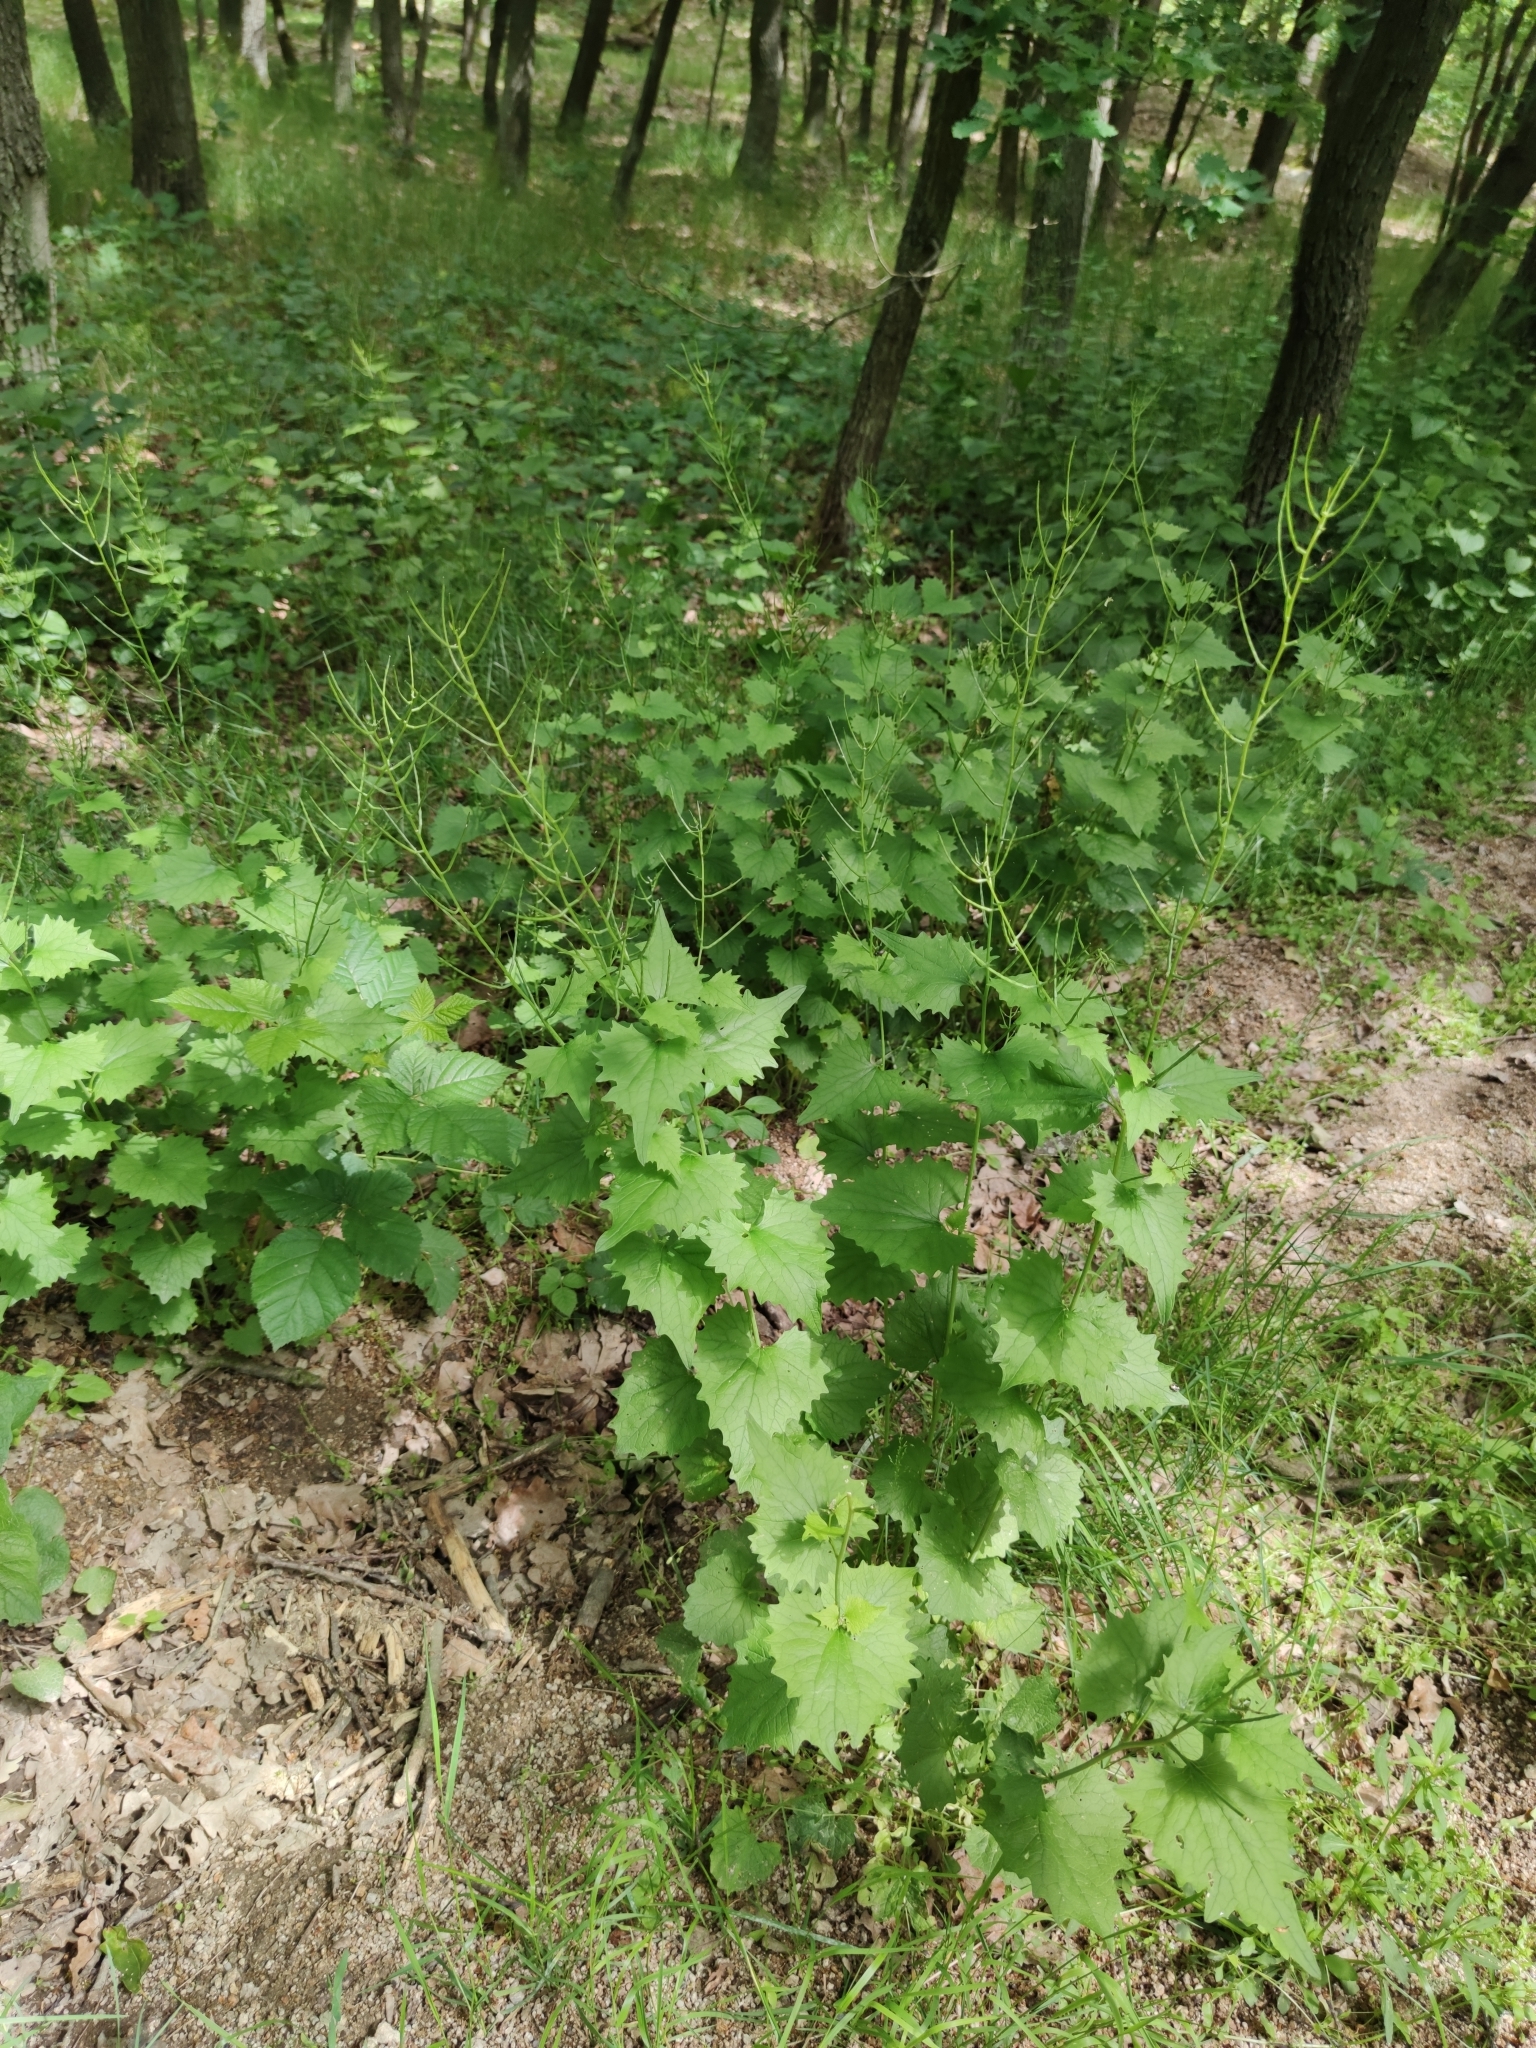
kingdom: Plantae
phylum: Tracheophyta
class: Magnoliopsida
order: Brassicales
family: Brassicaceae
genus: Alliaria
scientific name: Alliaria petiolata
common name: Garlic mustard
